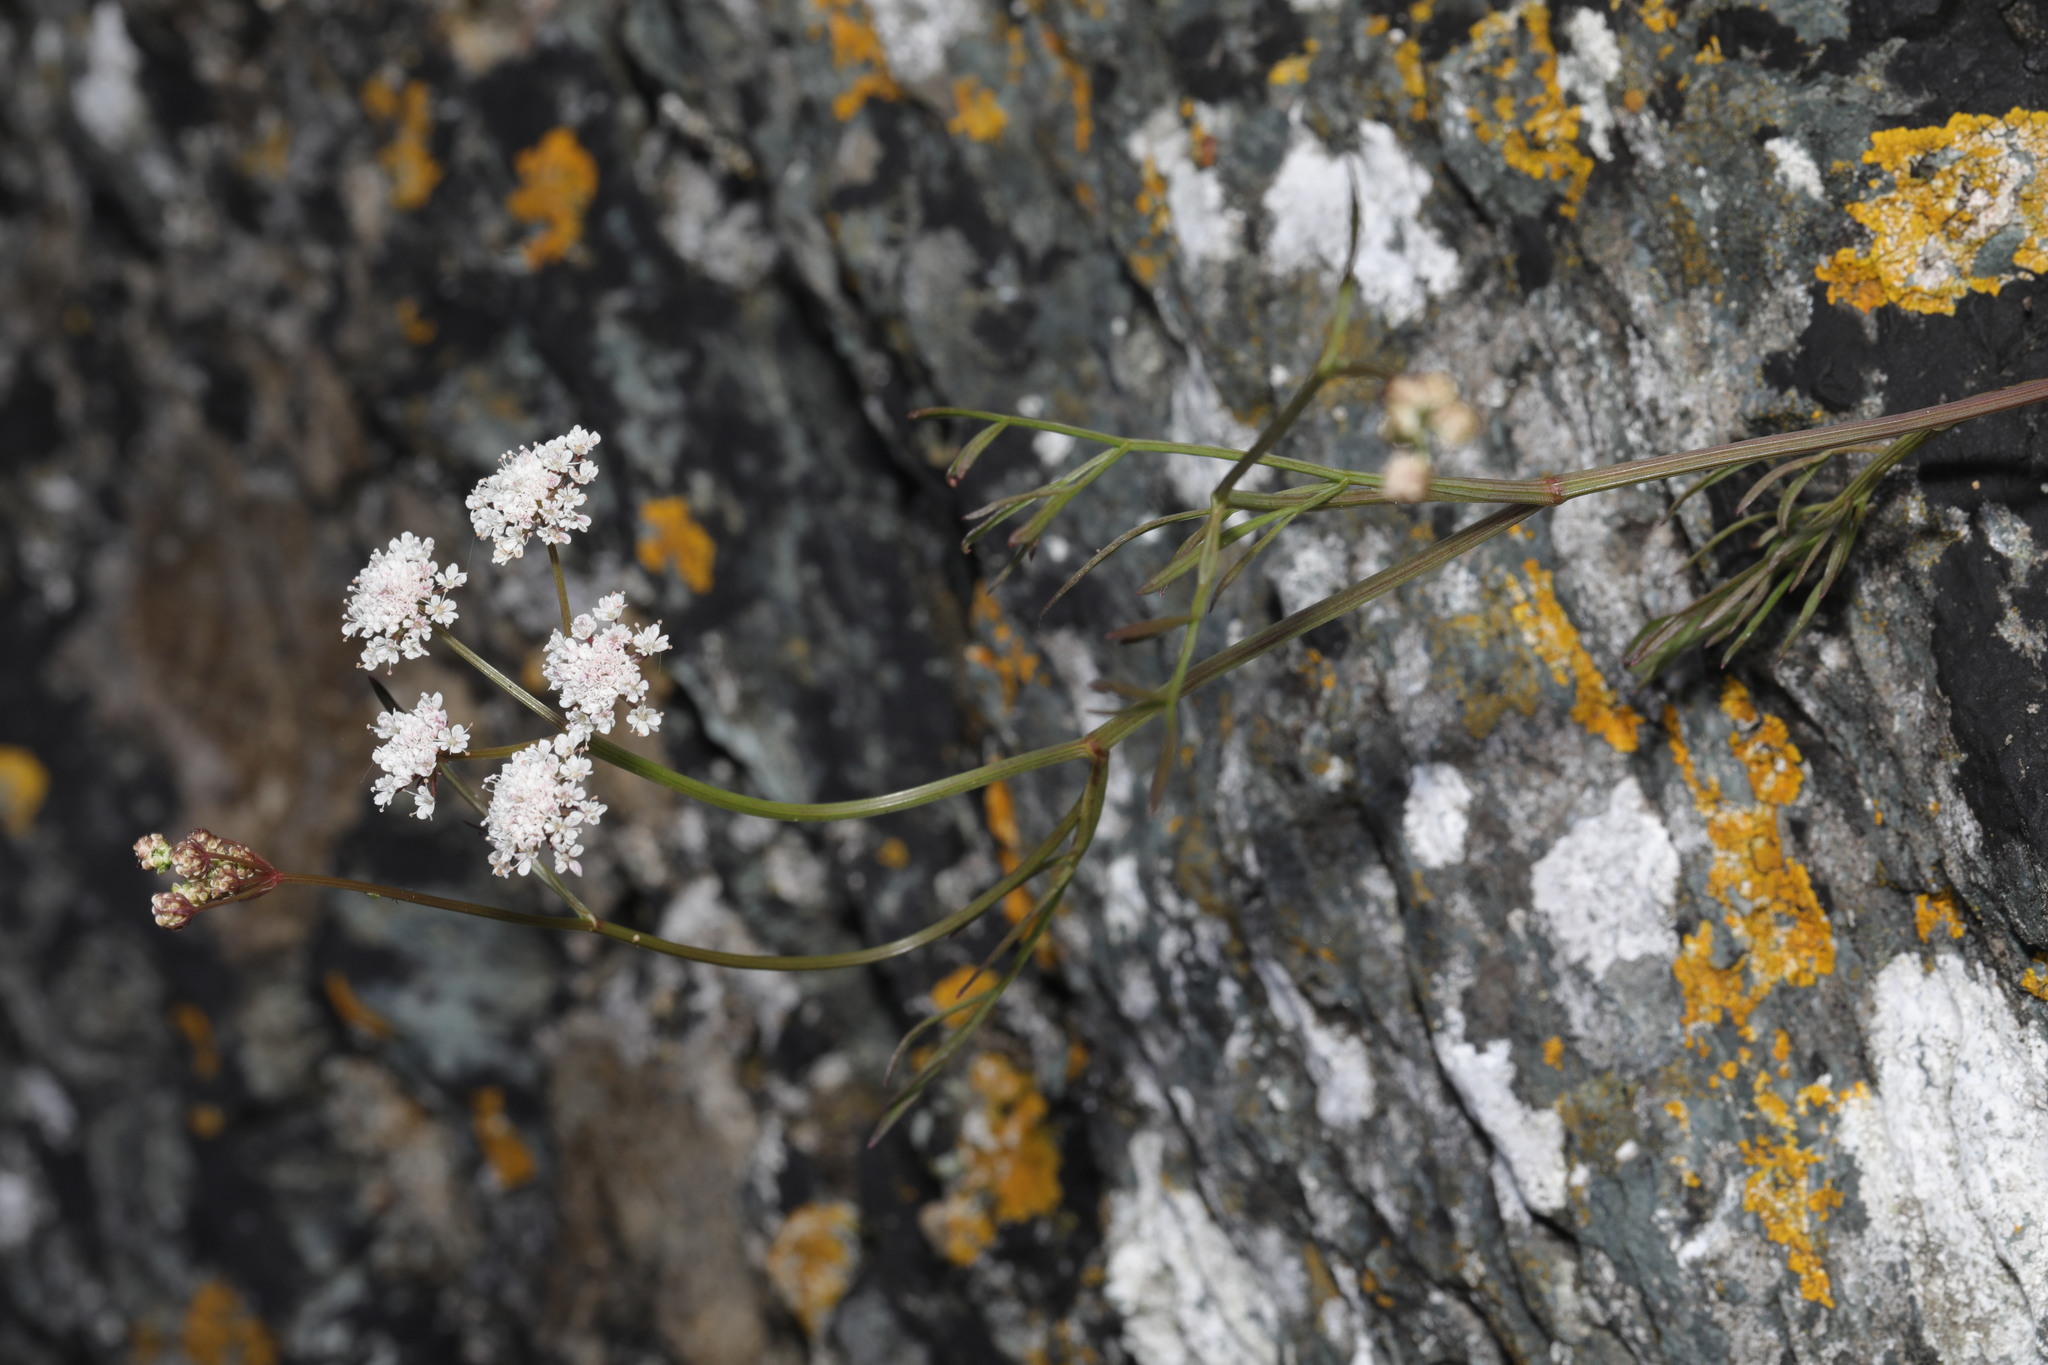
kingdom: Plantae
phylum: Tracheophyta
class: Magnoliopsida
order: Apiales
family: Apiaceae
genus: Oenanthe
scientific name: Oenanthe lachenalii
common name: Parsley water-dropwort
